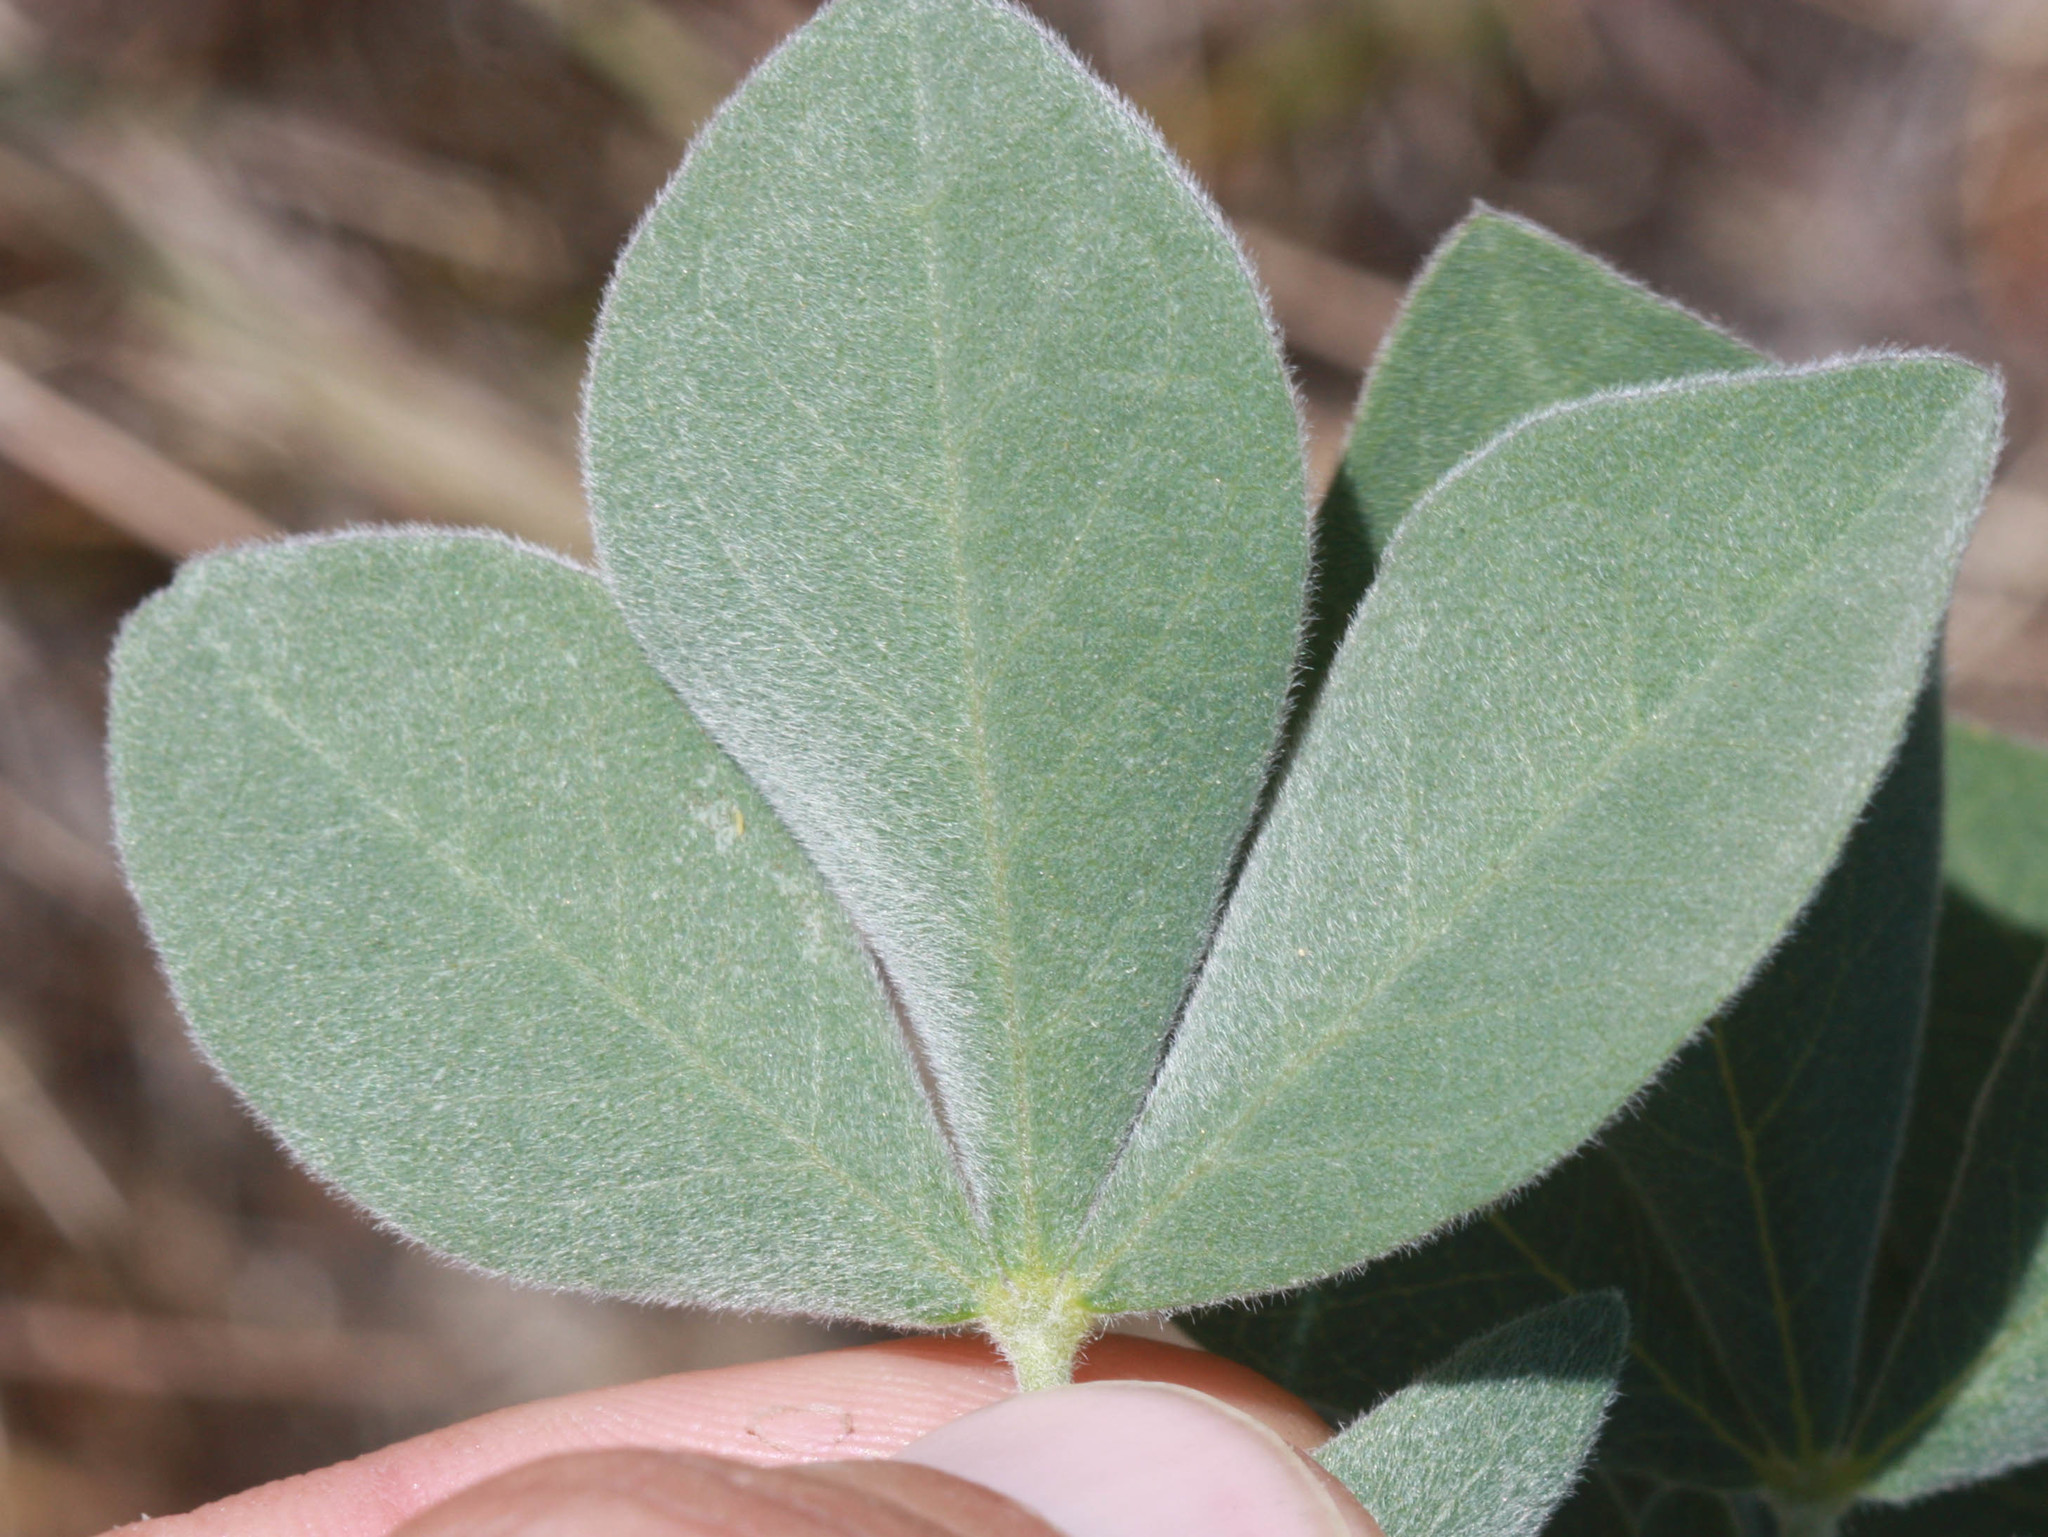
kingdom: Plantae
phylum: Tracheophyta
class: Magnoliopsida
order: Fabales
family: Fabaceae
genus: Thermopsis
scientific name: Thermopsis californica
